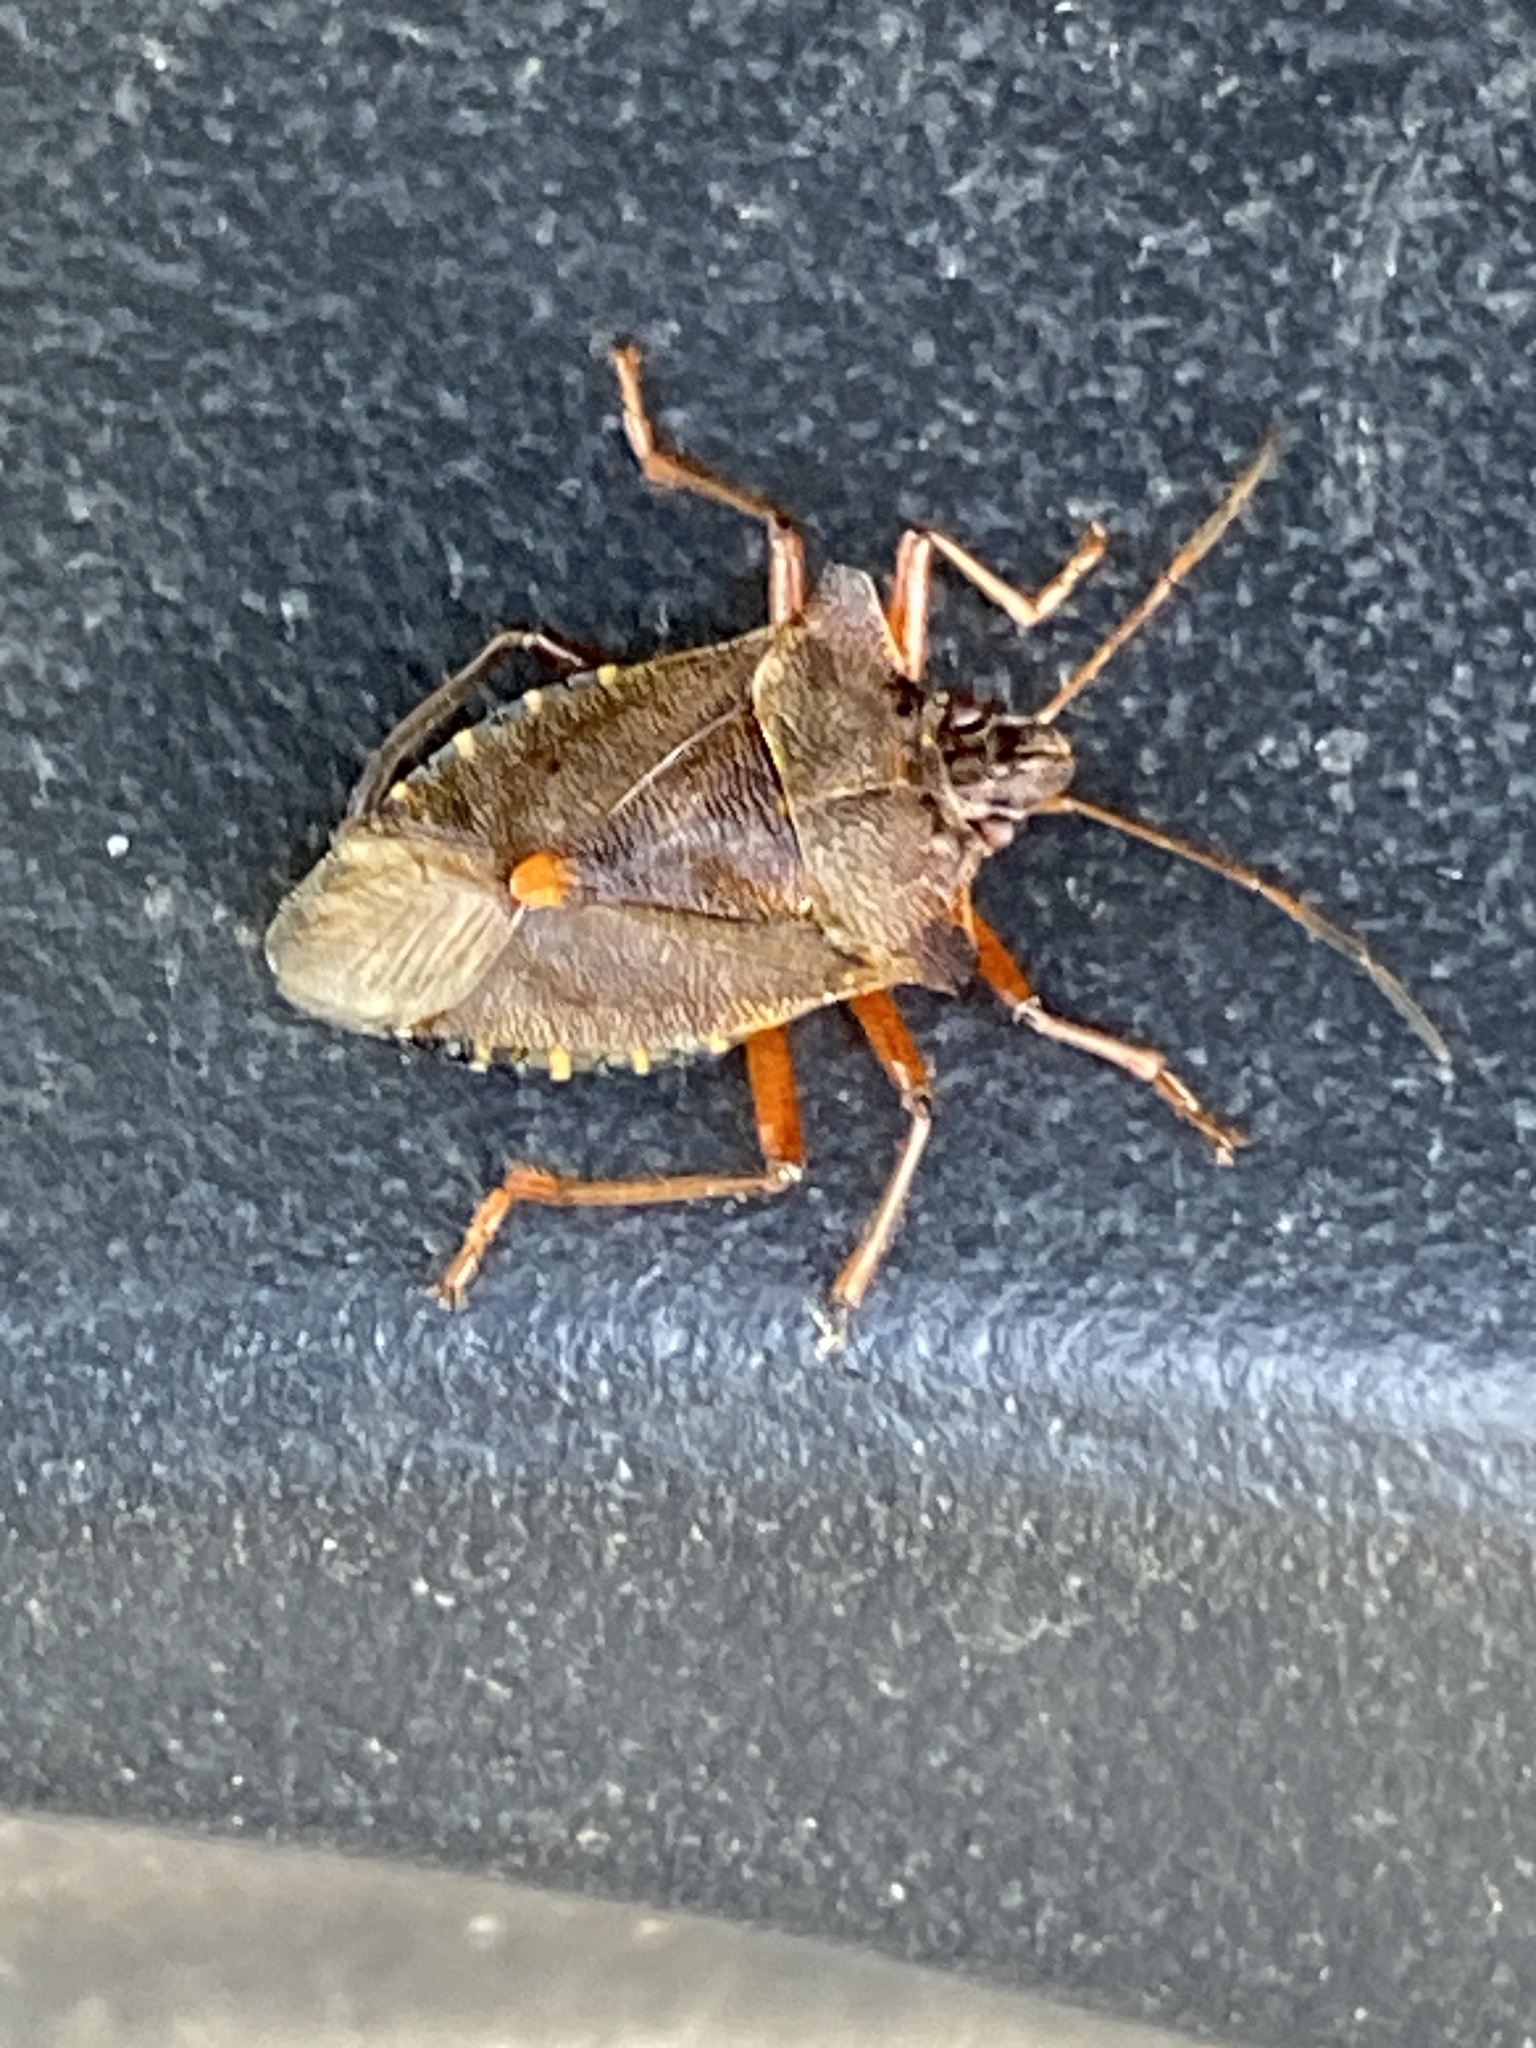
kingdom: Animalia
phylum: Arthropoda
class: Insecta
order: Hemiptera
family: Pentatomidae
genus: Pentatoma
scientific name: Pentatoma rufipes
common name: Forest bug
